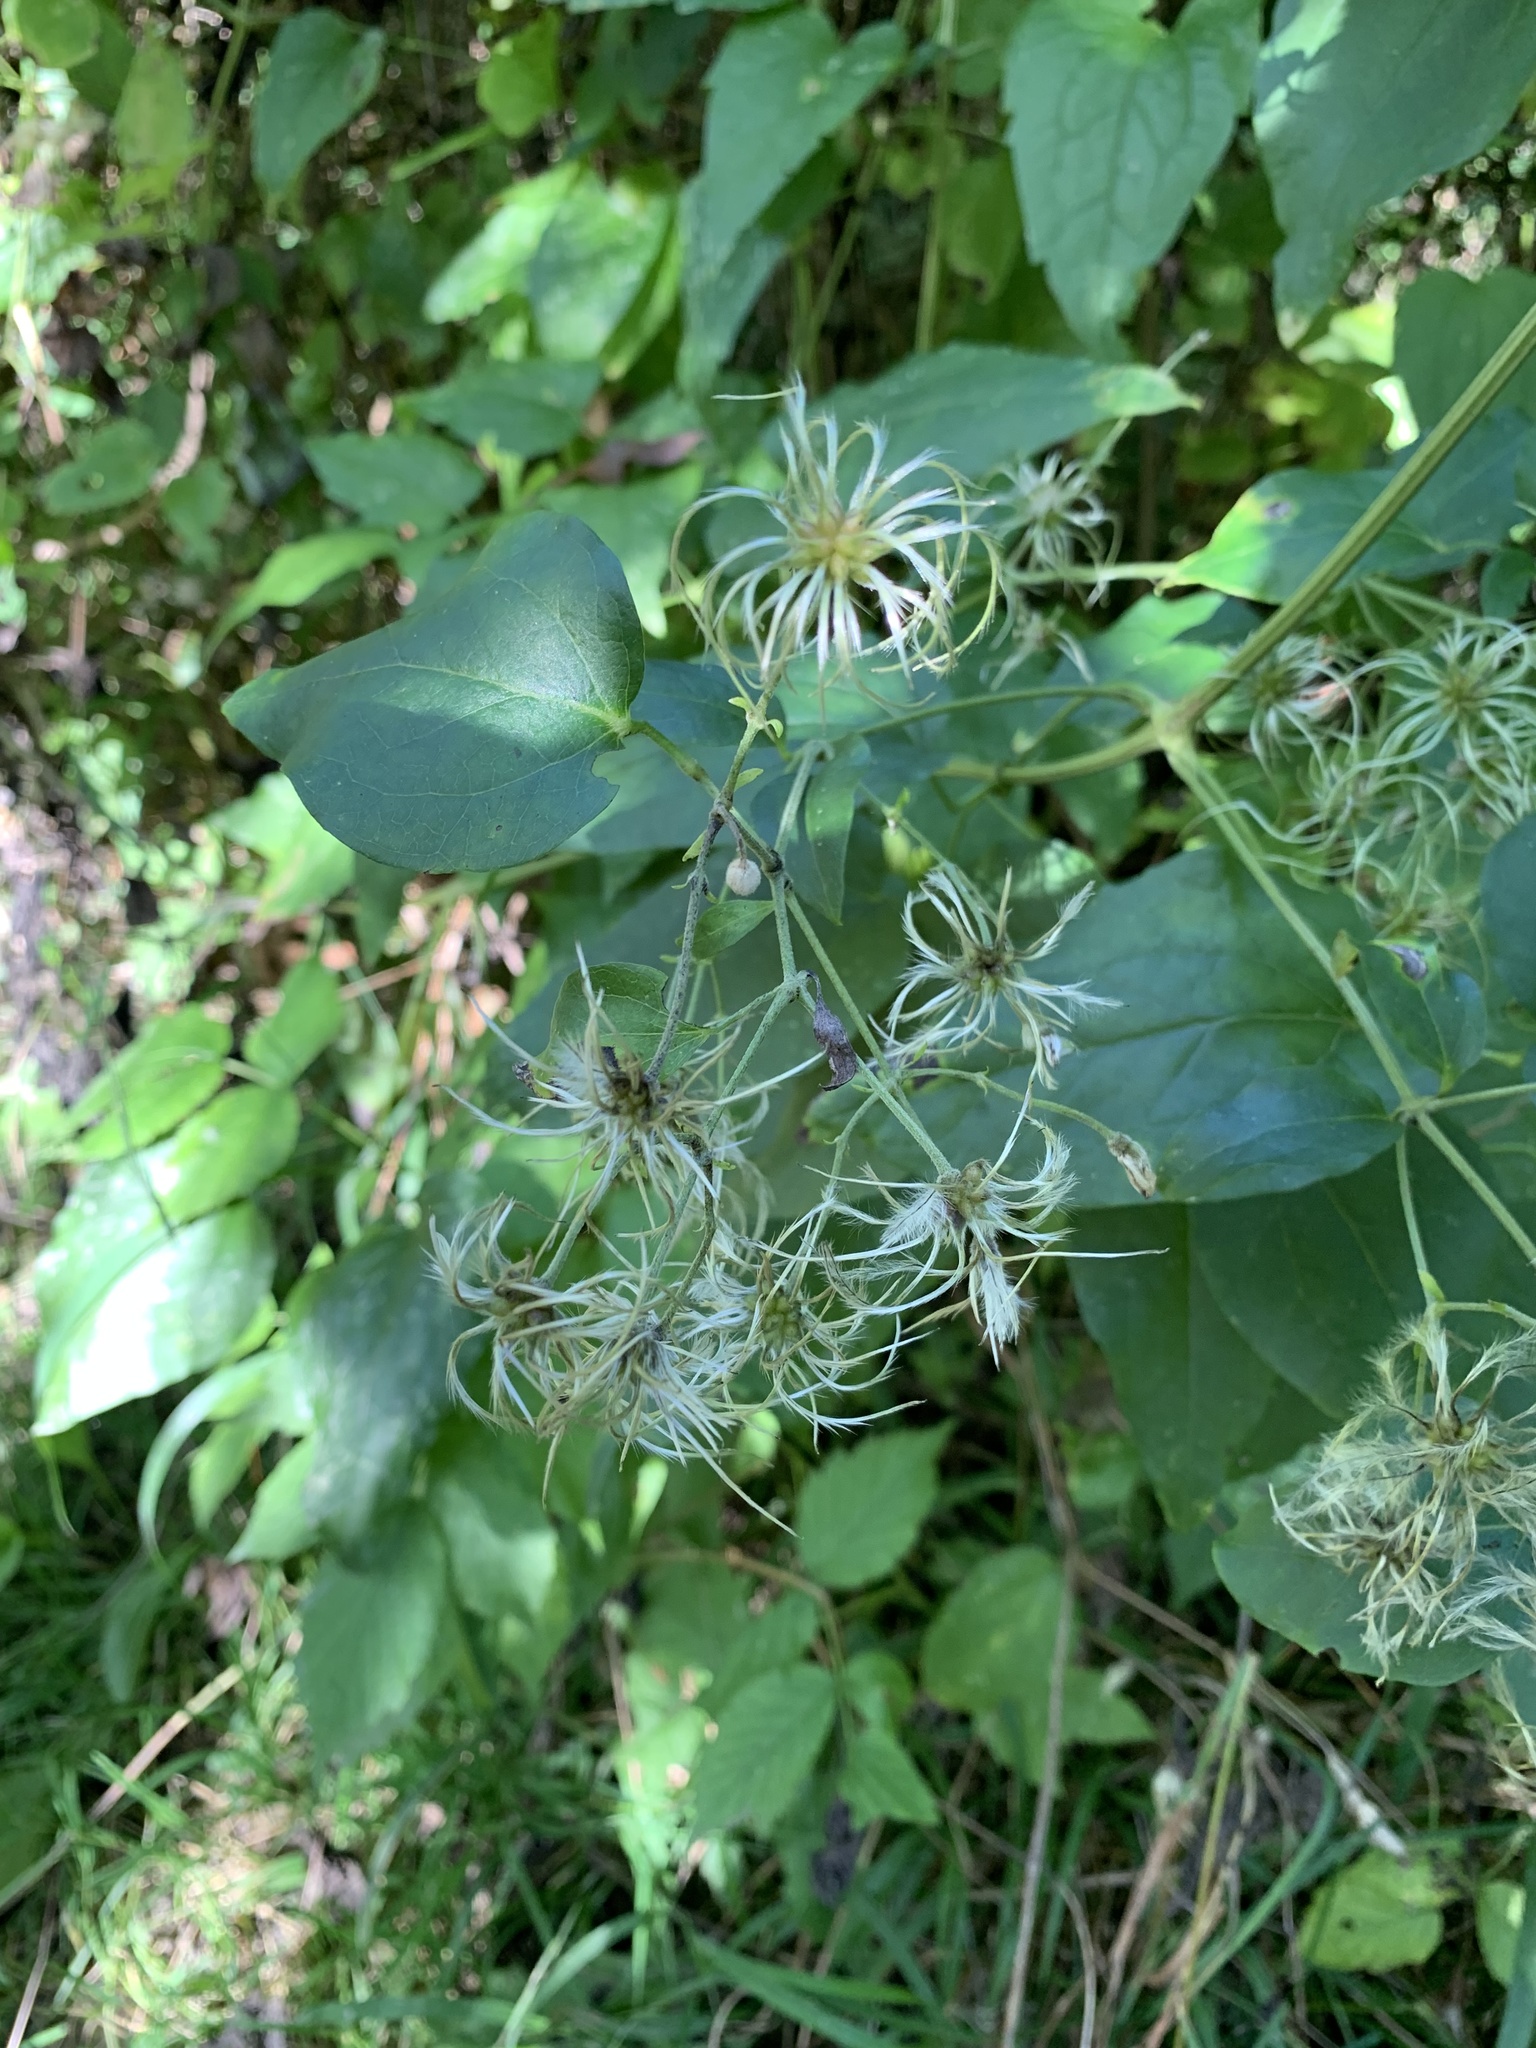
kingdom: Plantae
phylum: Tracheophyta
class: Magnoliopsida
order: Ranunculales
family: Ranunculaceae
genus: Clematis
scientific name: Clematis vitalba
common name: Evergreen clematis
